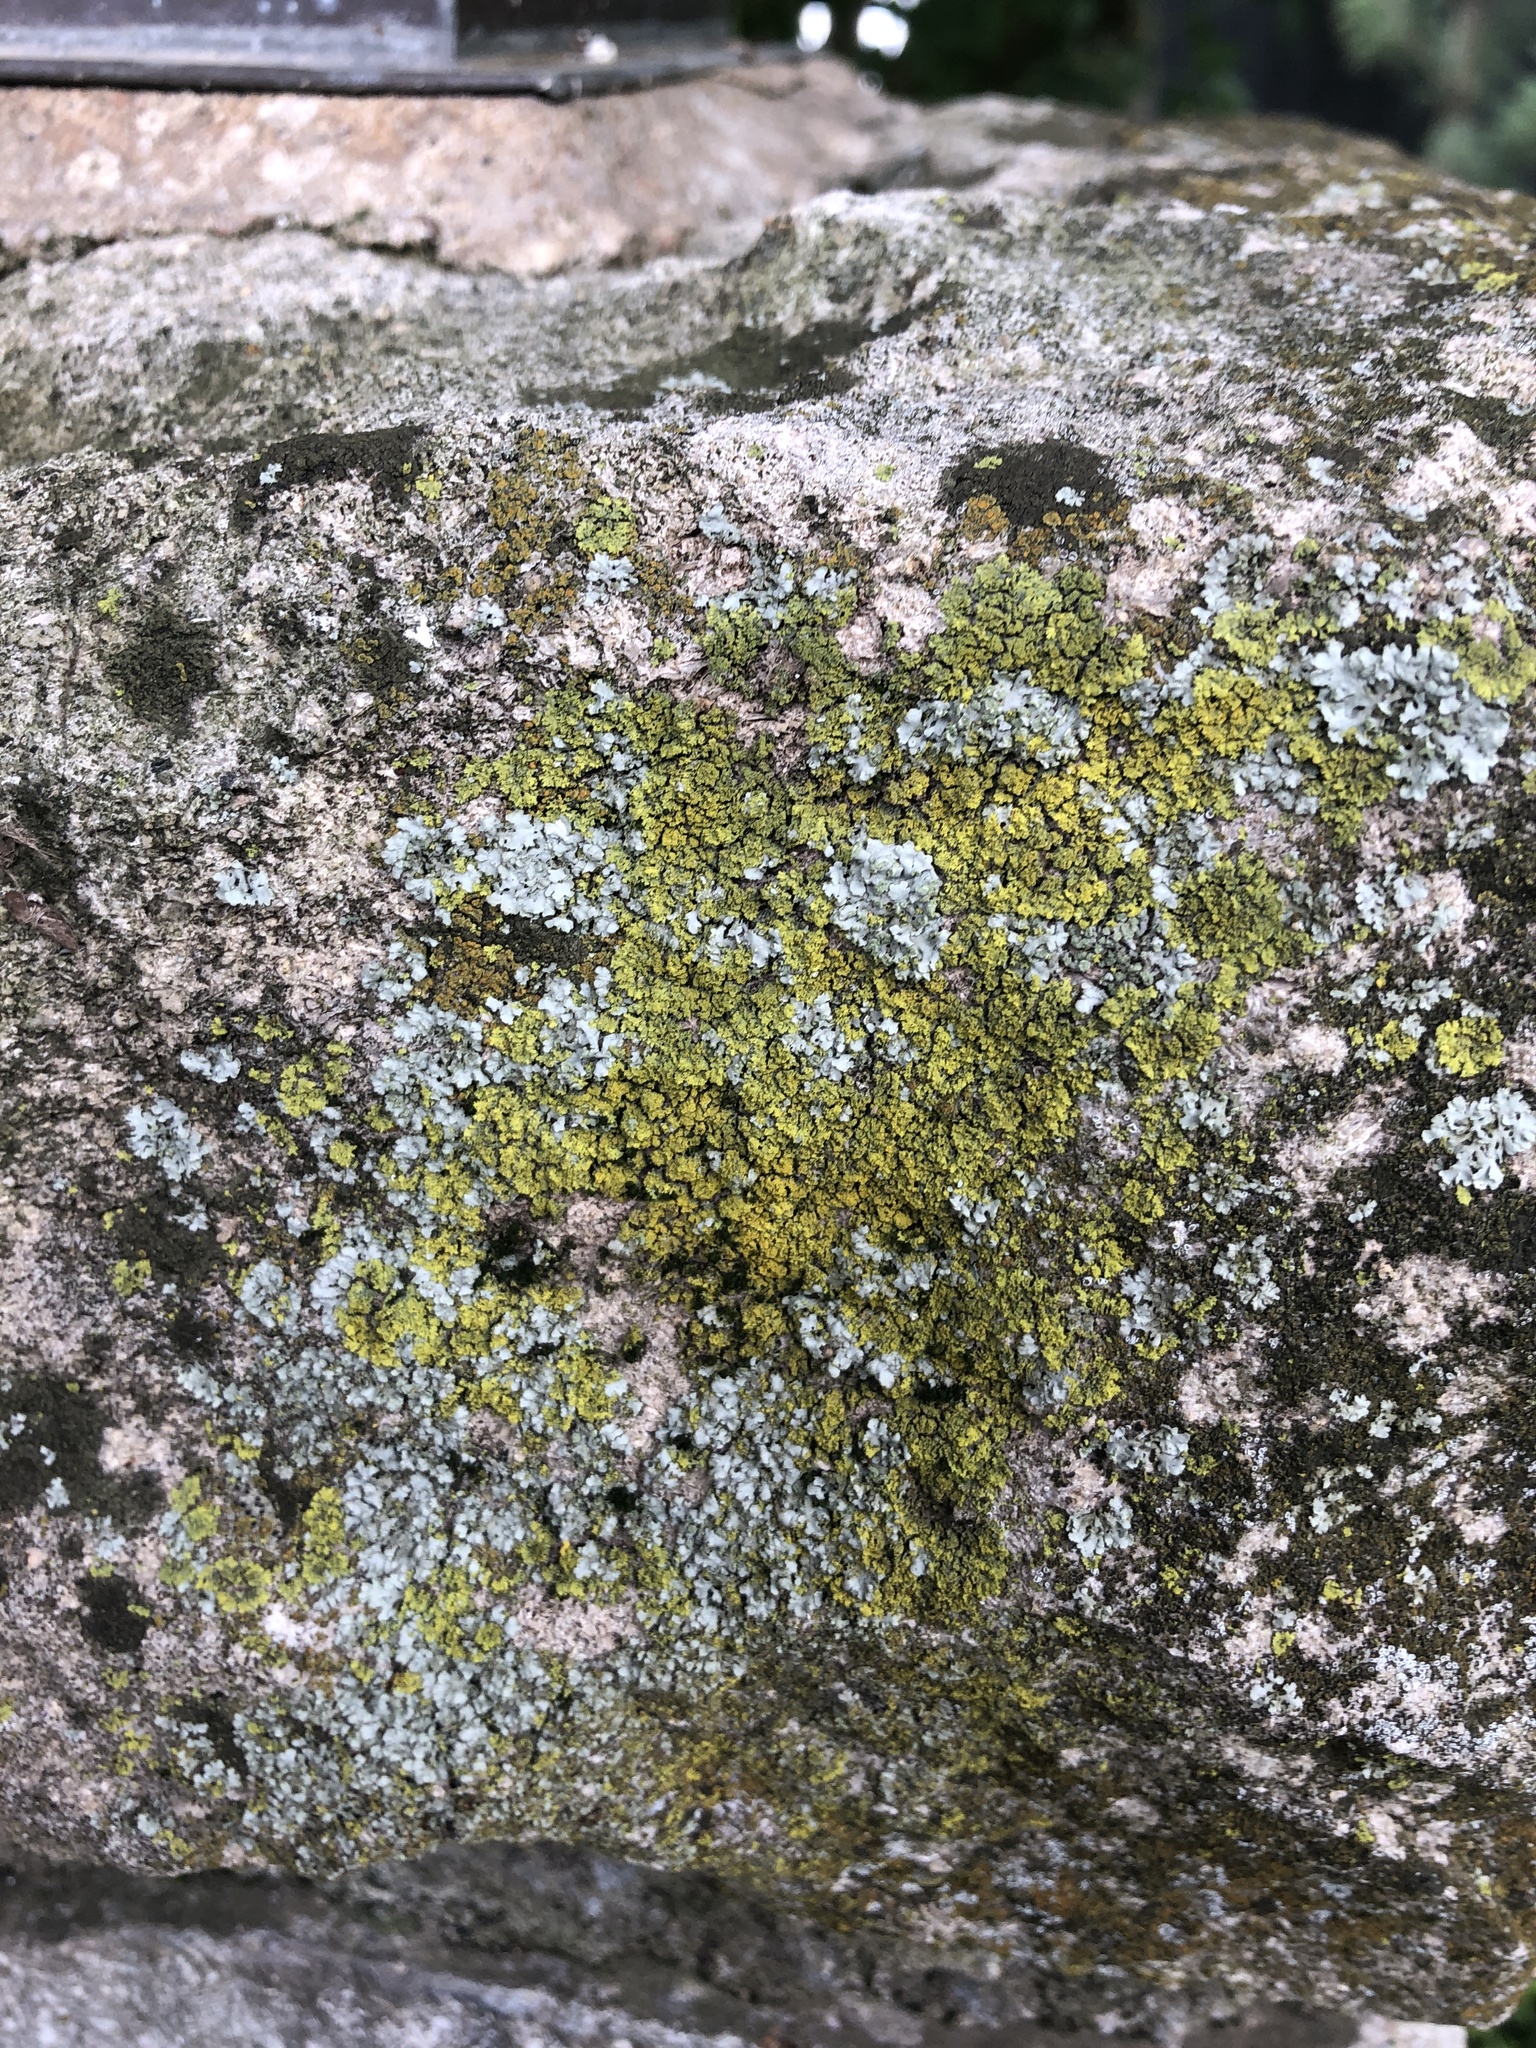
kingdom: Fungi
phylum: Ascomycota
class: Candelariomycetes
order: Candelariales
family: Candelariaceae
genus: Candelariella
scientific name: Candelariella vitellina
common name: Common goldspeck
